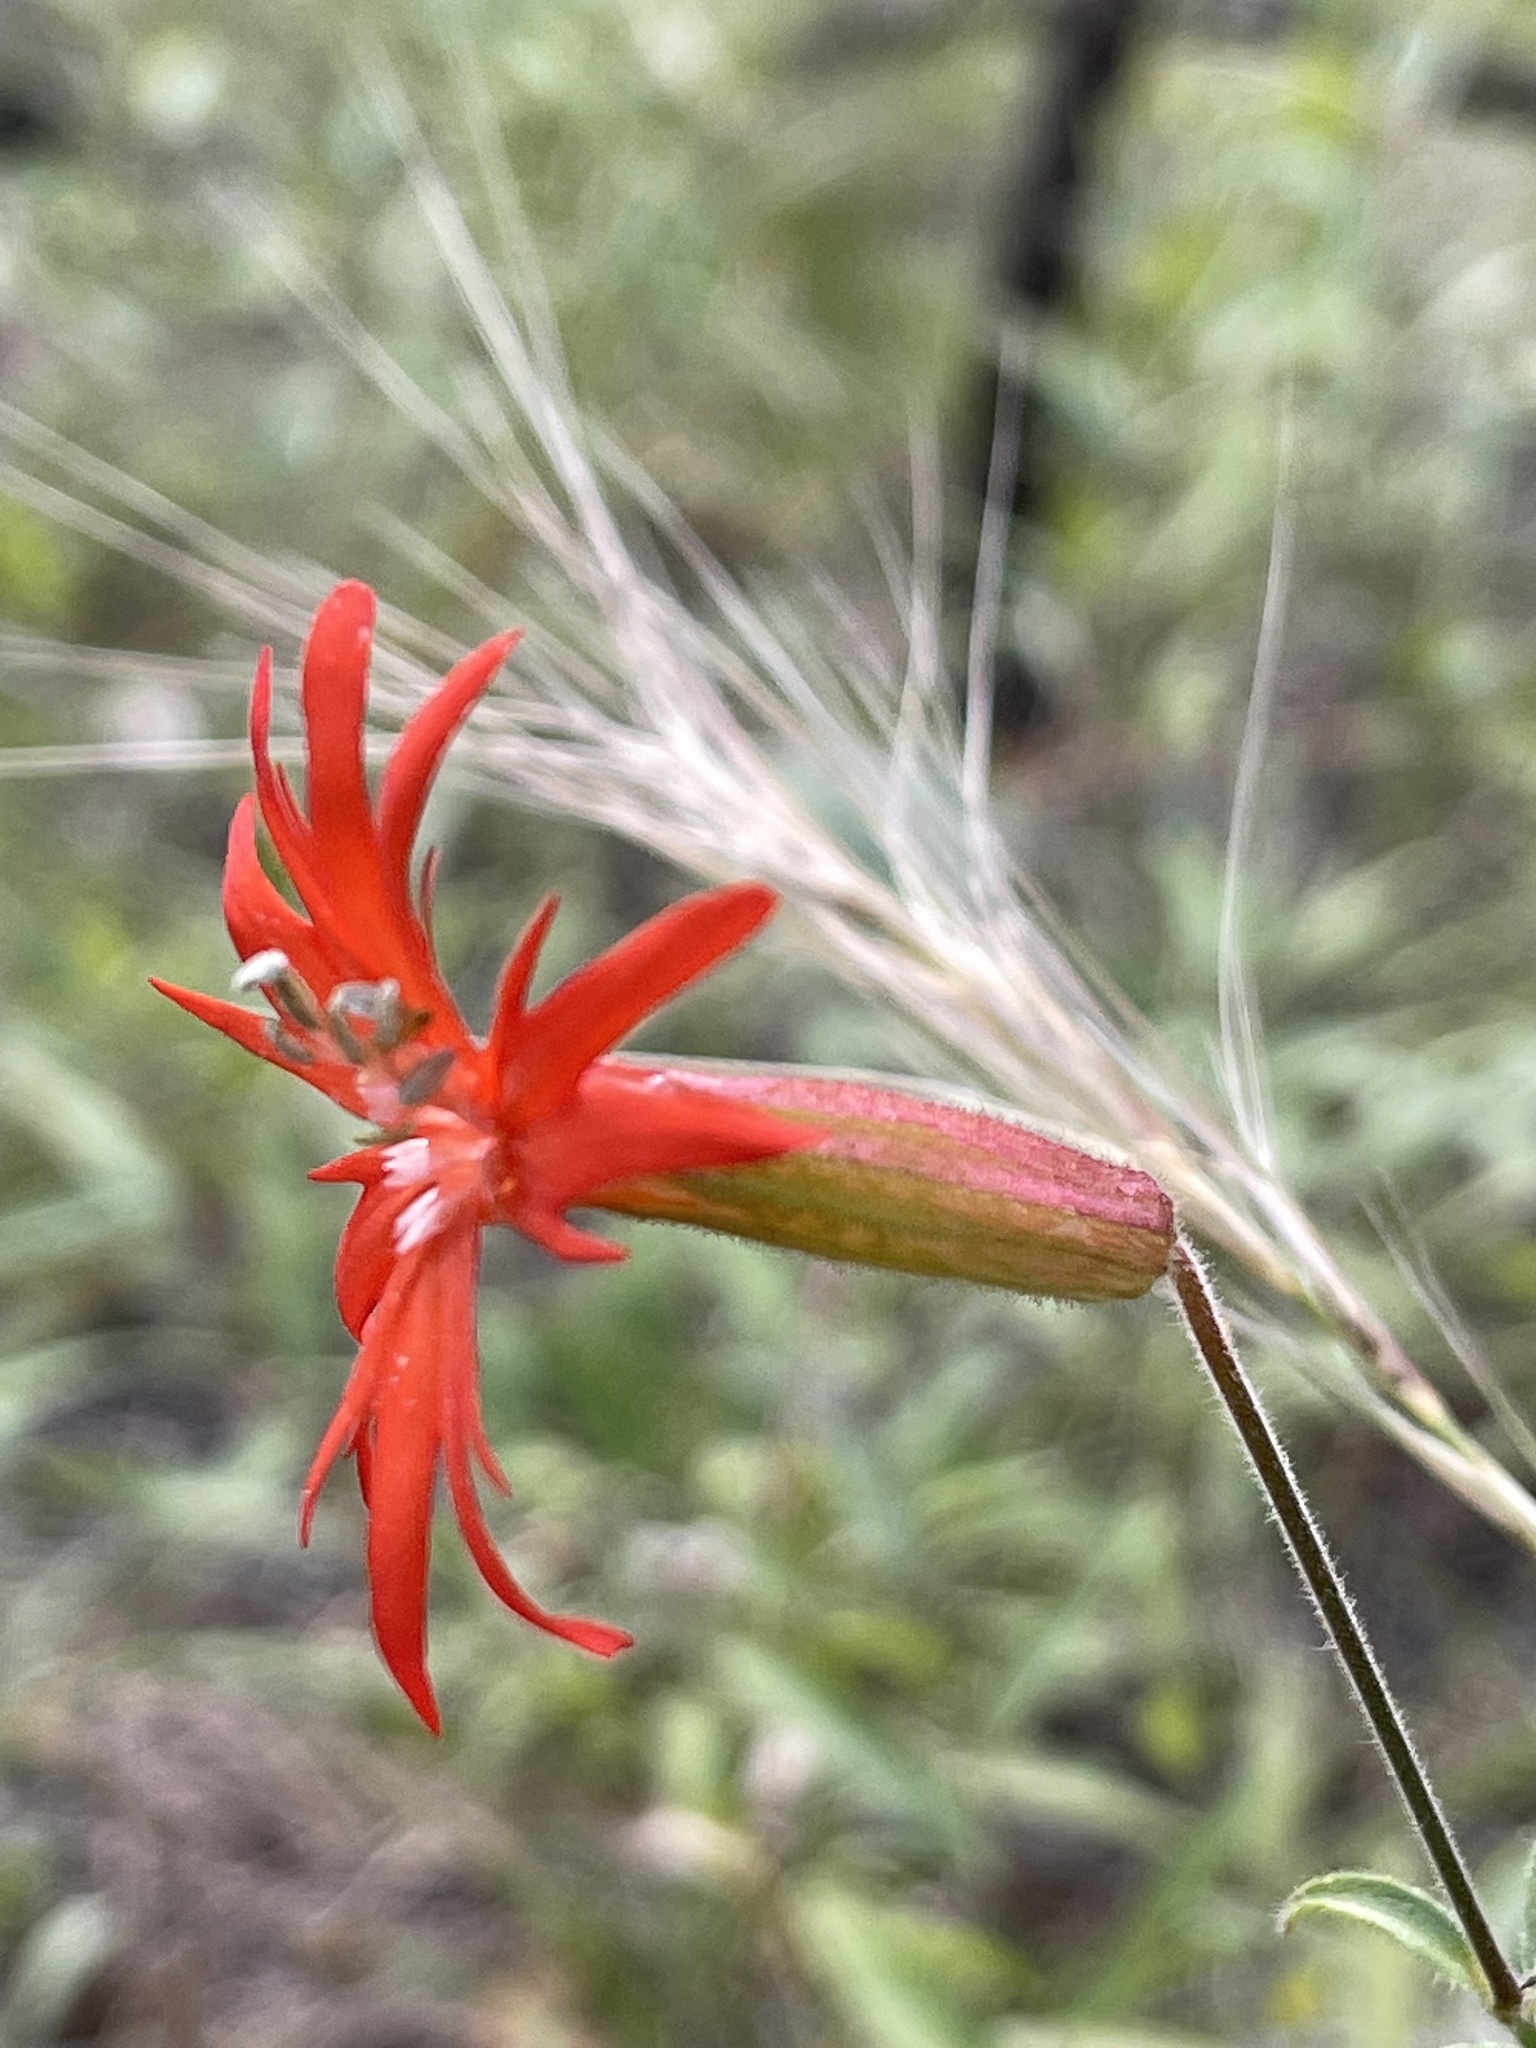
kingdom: Plantae
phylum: Tracheophyta
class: Magnoliopsida
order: Caryophyllales
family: Caryophyllaceae
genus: Silene
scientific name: Silene laciniata
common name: Indian-pink
